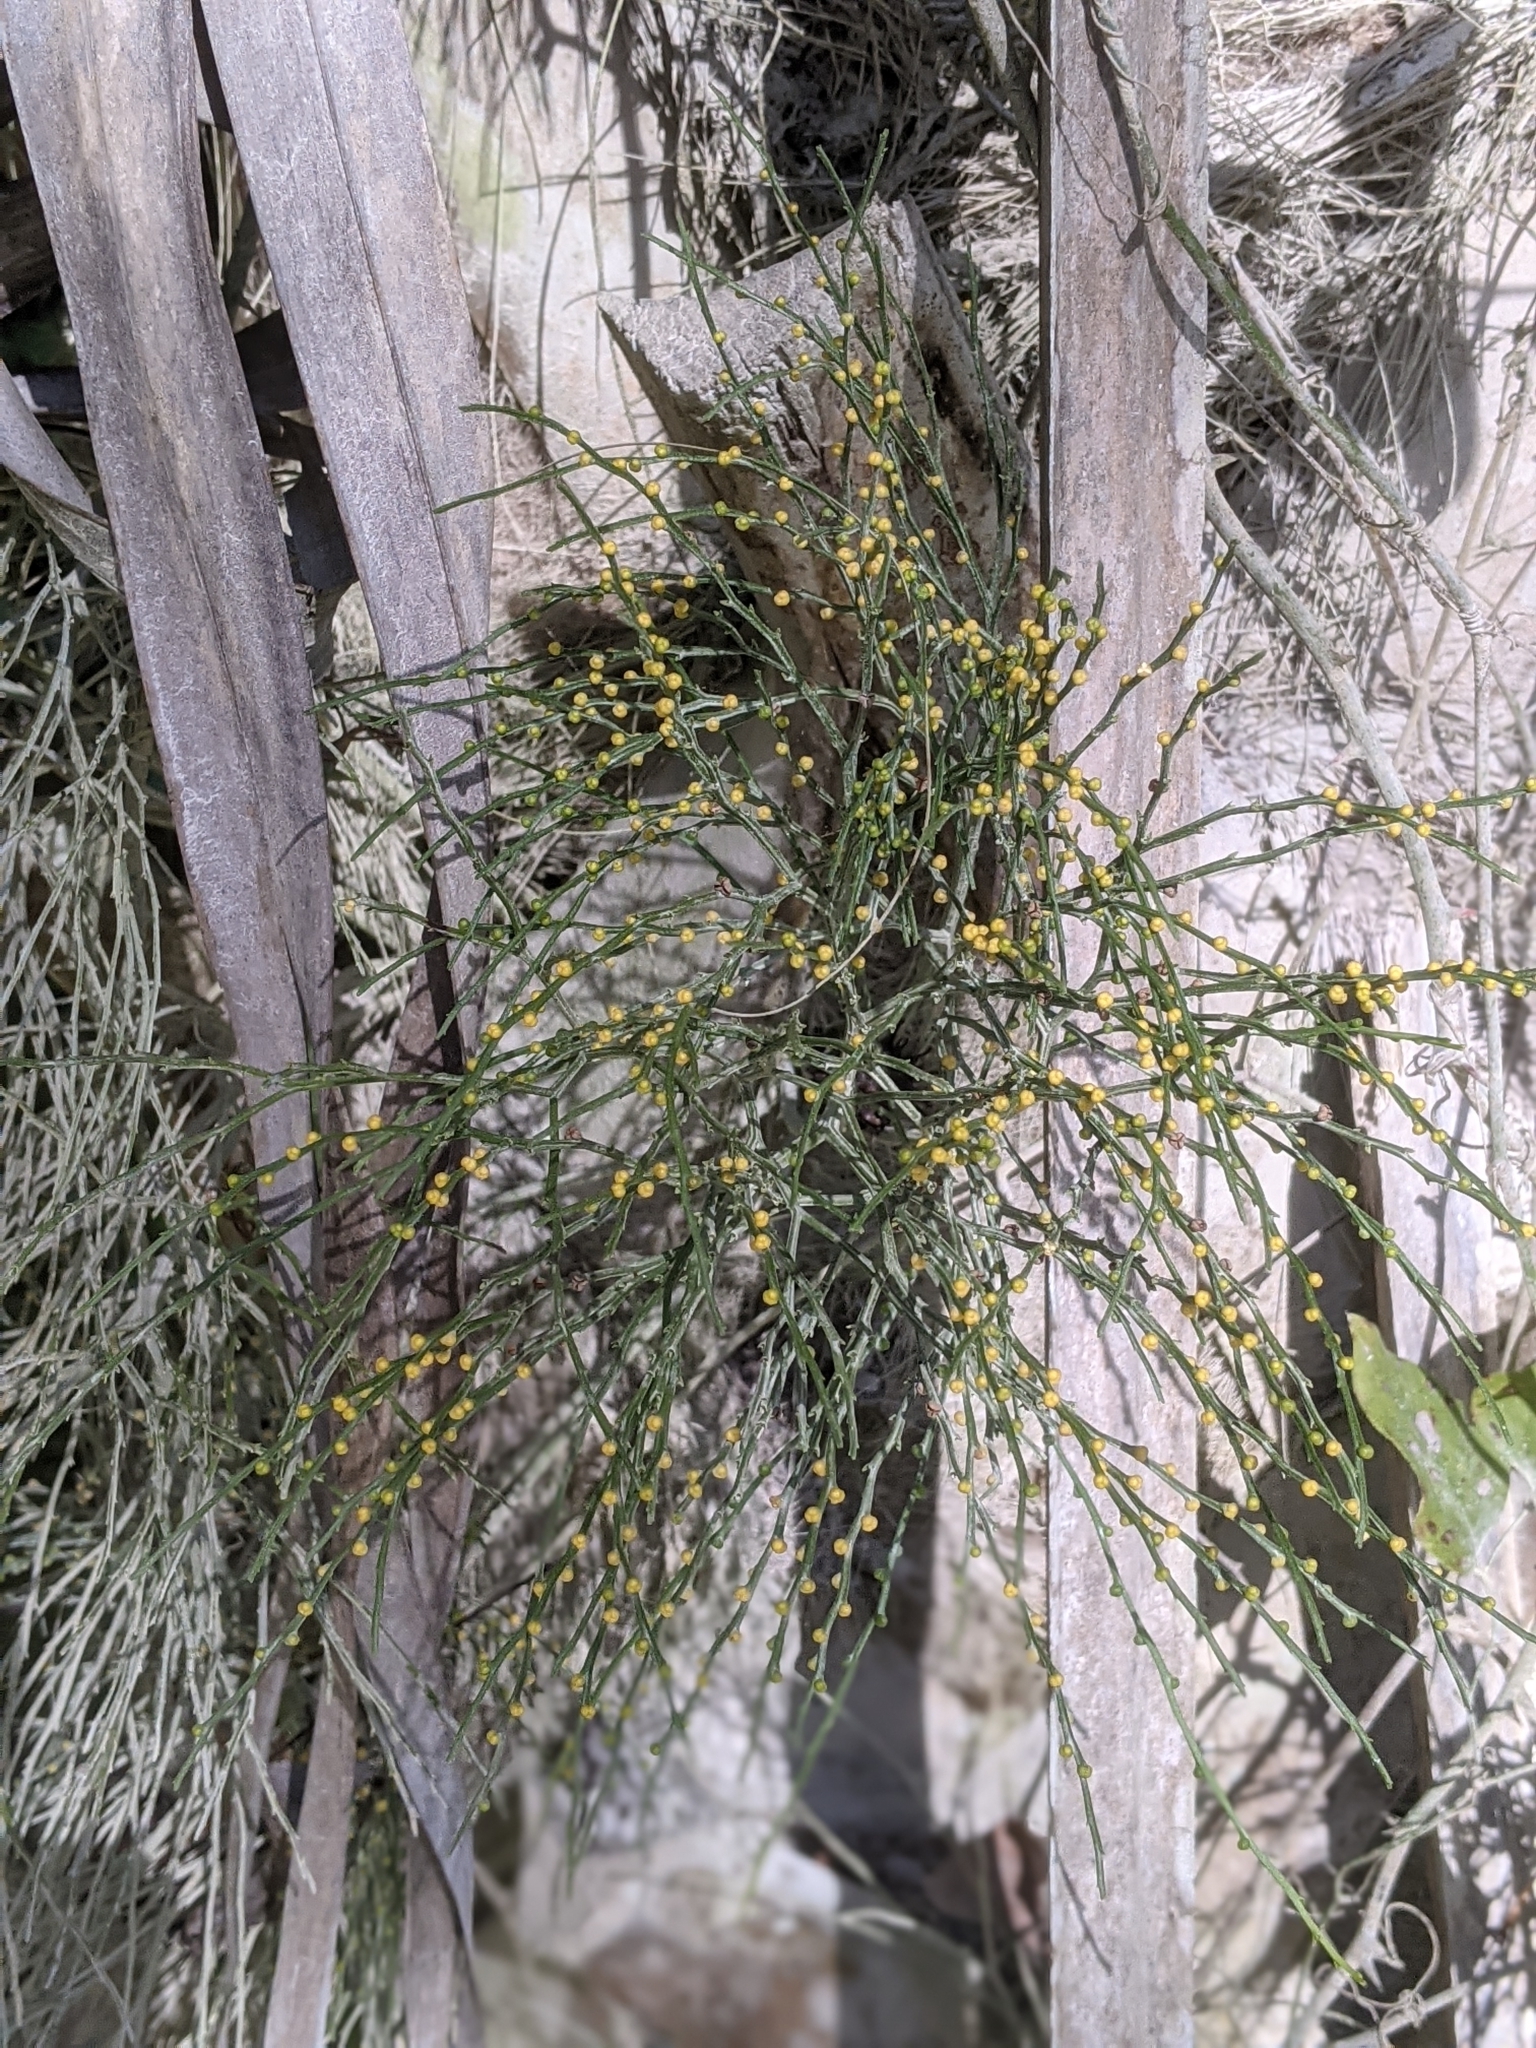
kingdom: Plantae
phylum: Tracheophyta
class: Polypodiopsida
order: Psilotales
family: Psilotaceae
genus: Psilotum
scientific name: Psilotum nudum
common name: Skeleton fork fern
